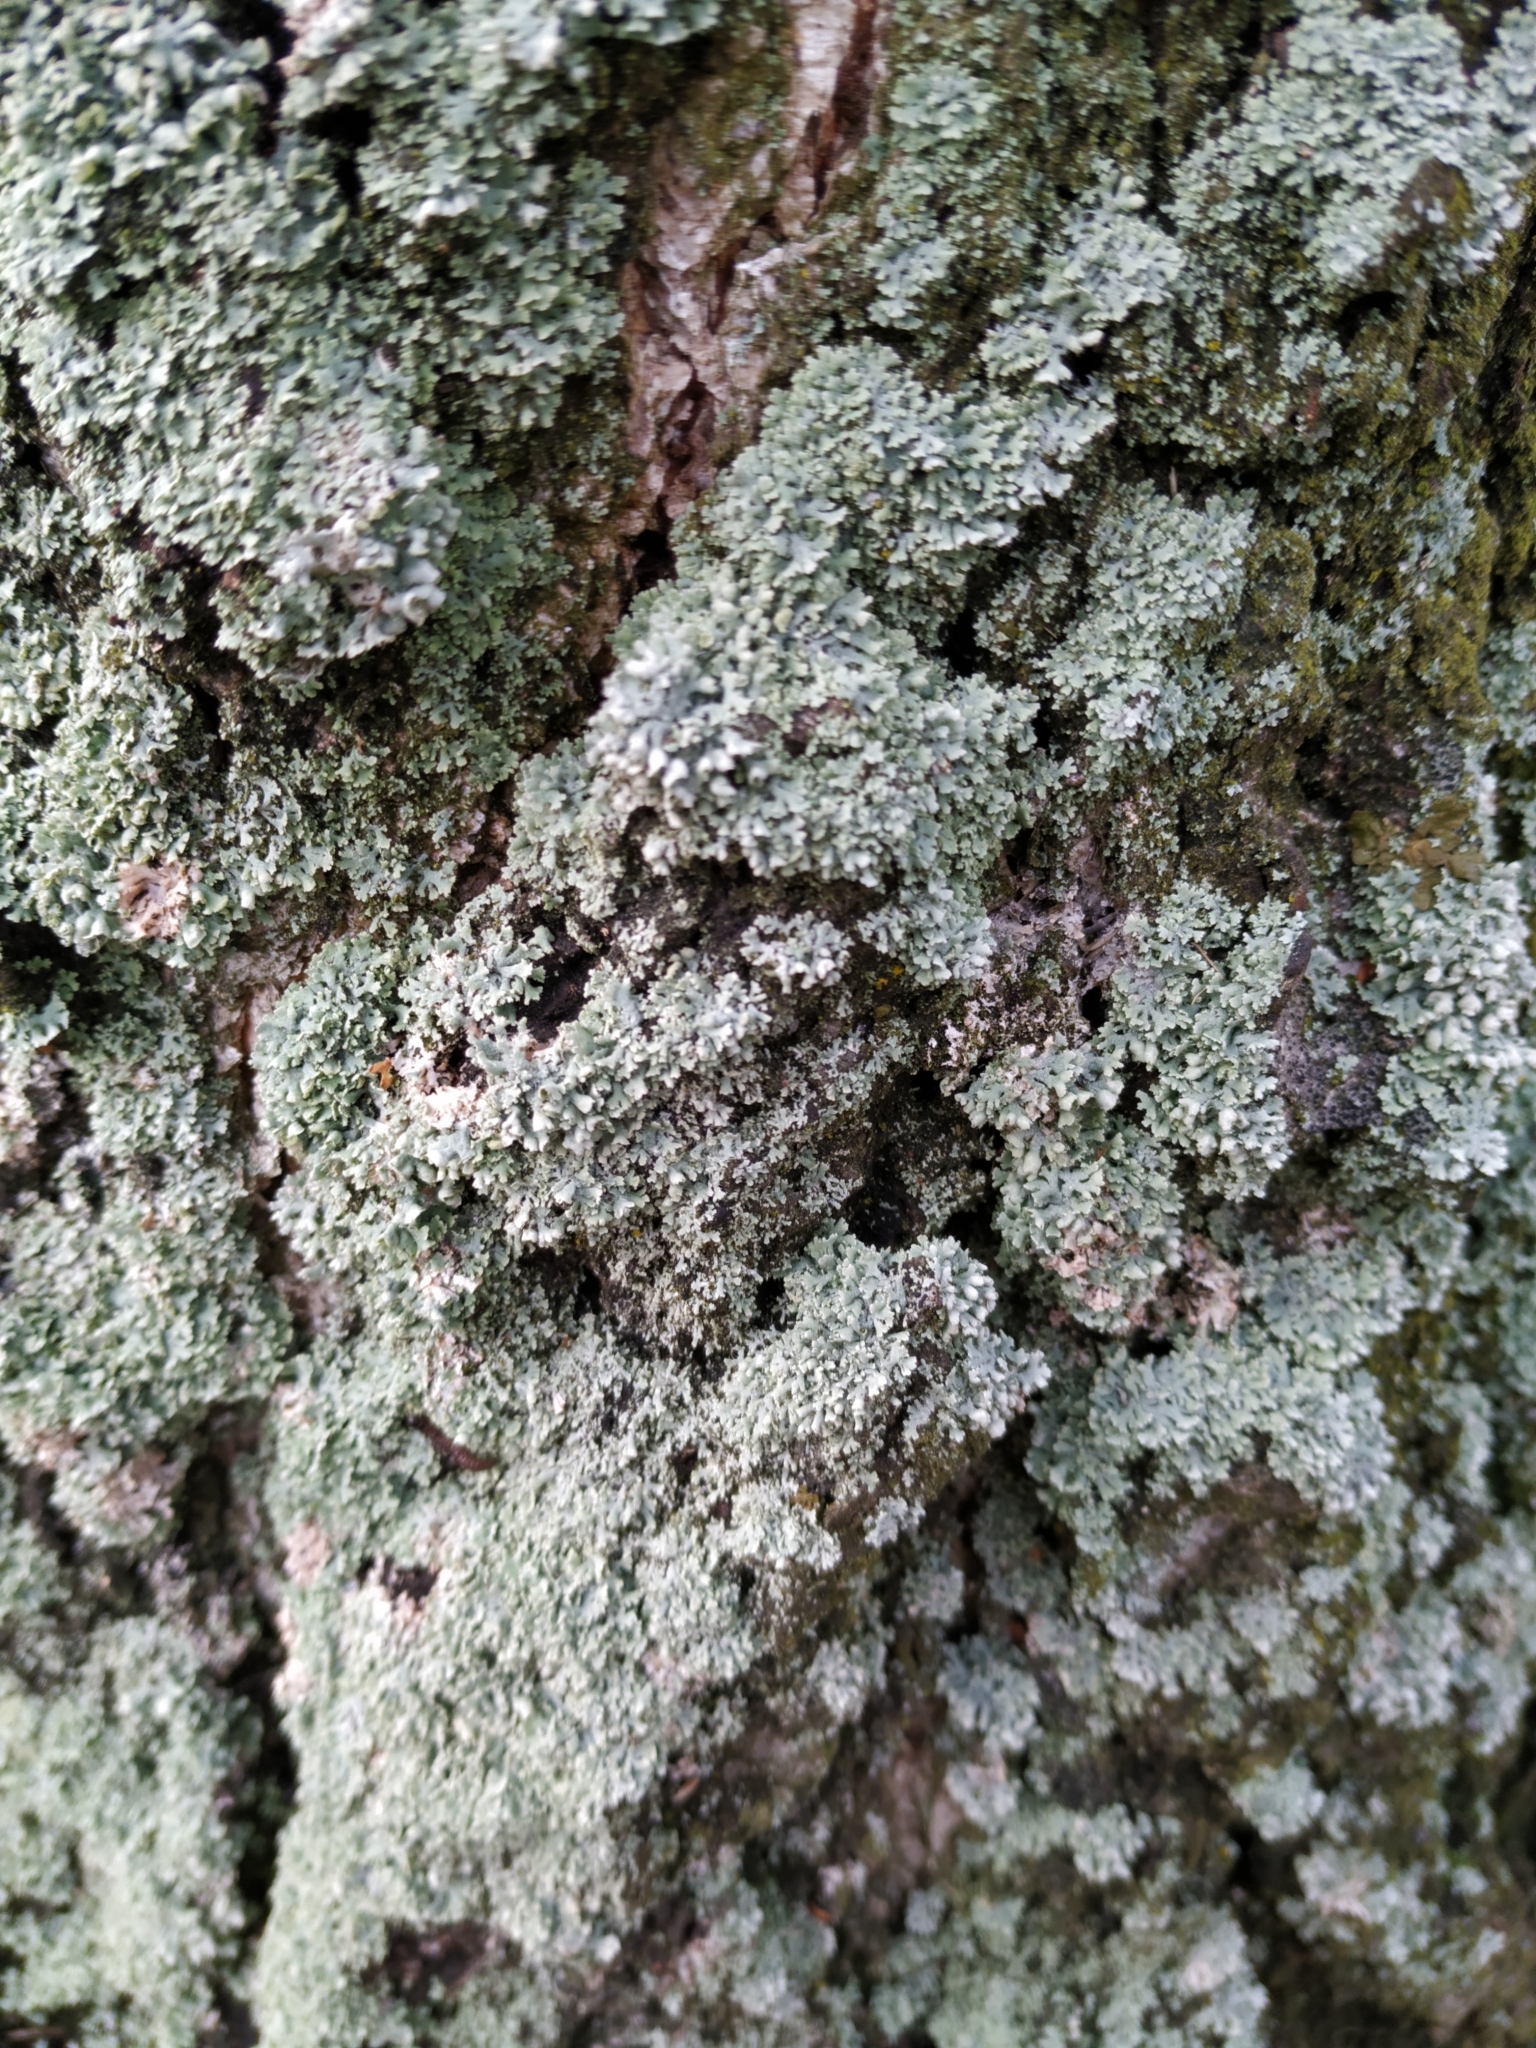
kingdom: Fungi
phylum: Ascomycota
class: Lecanoromycetes
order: Caliciales
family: Physciaceae
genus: Physcia
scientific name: Physcia adscendens
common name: Hooded rosette lichen
